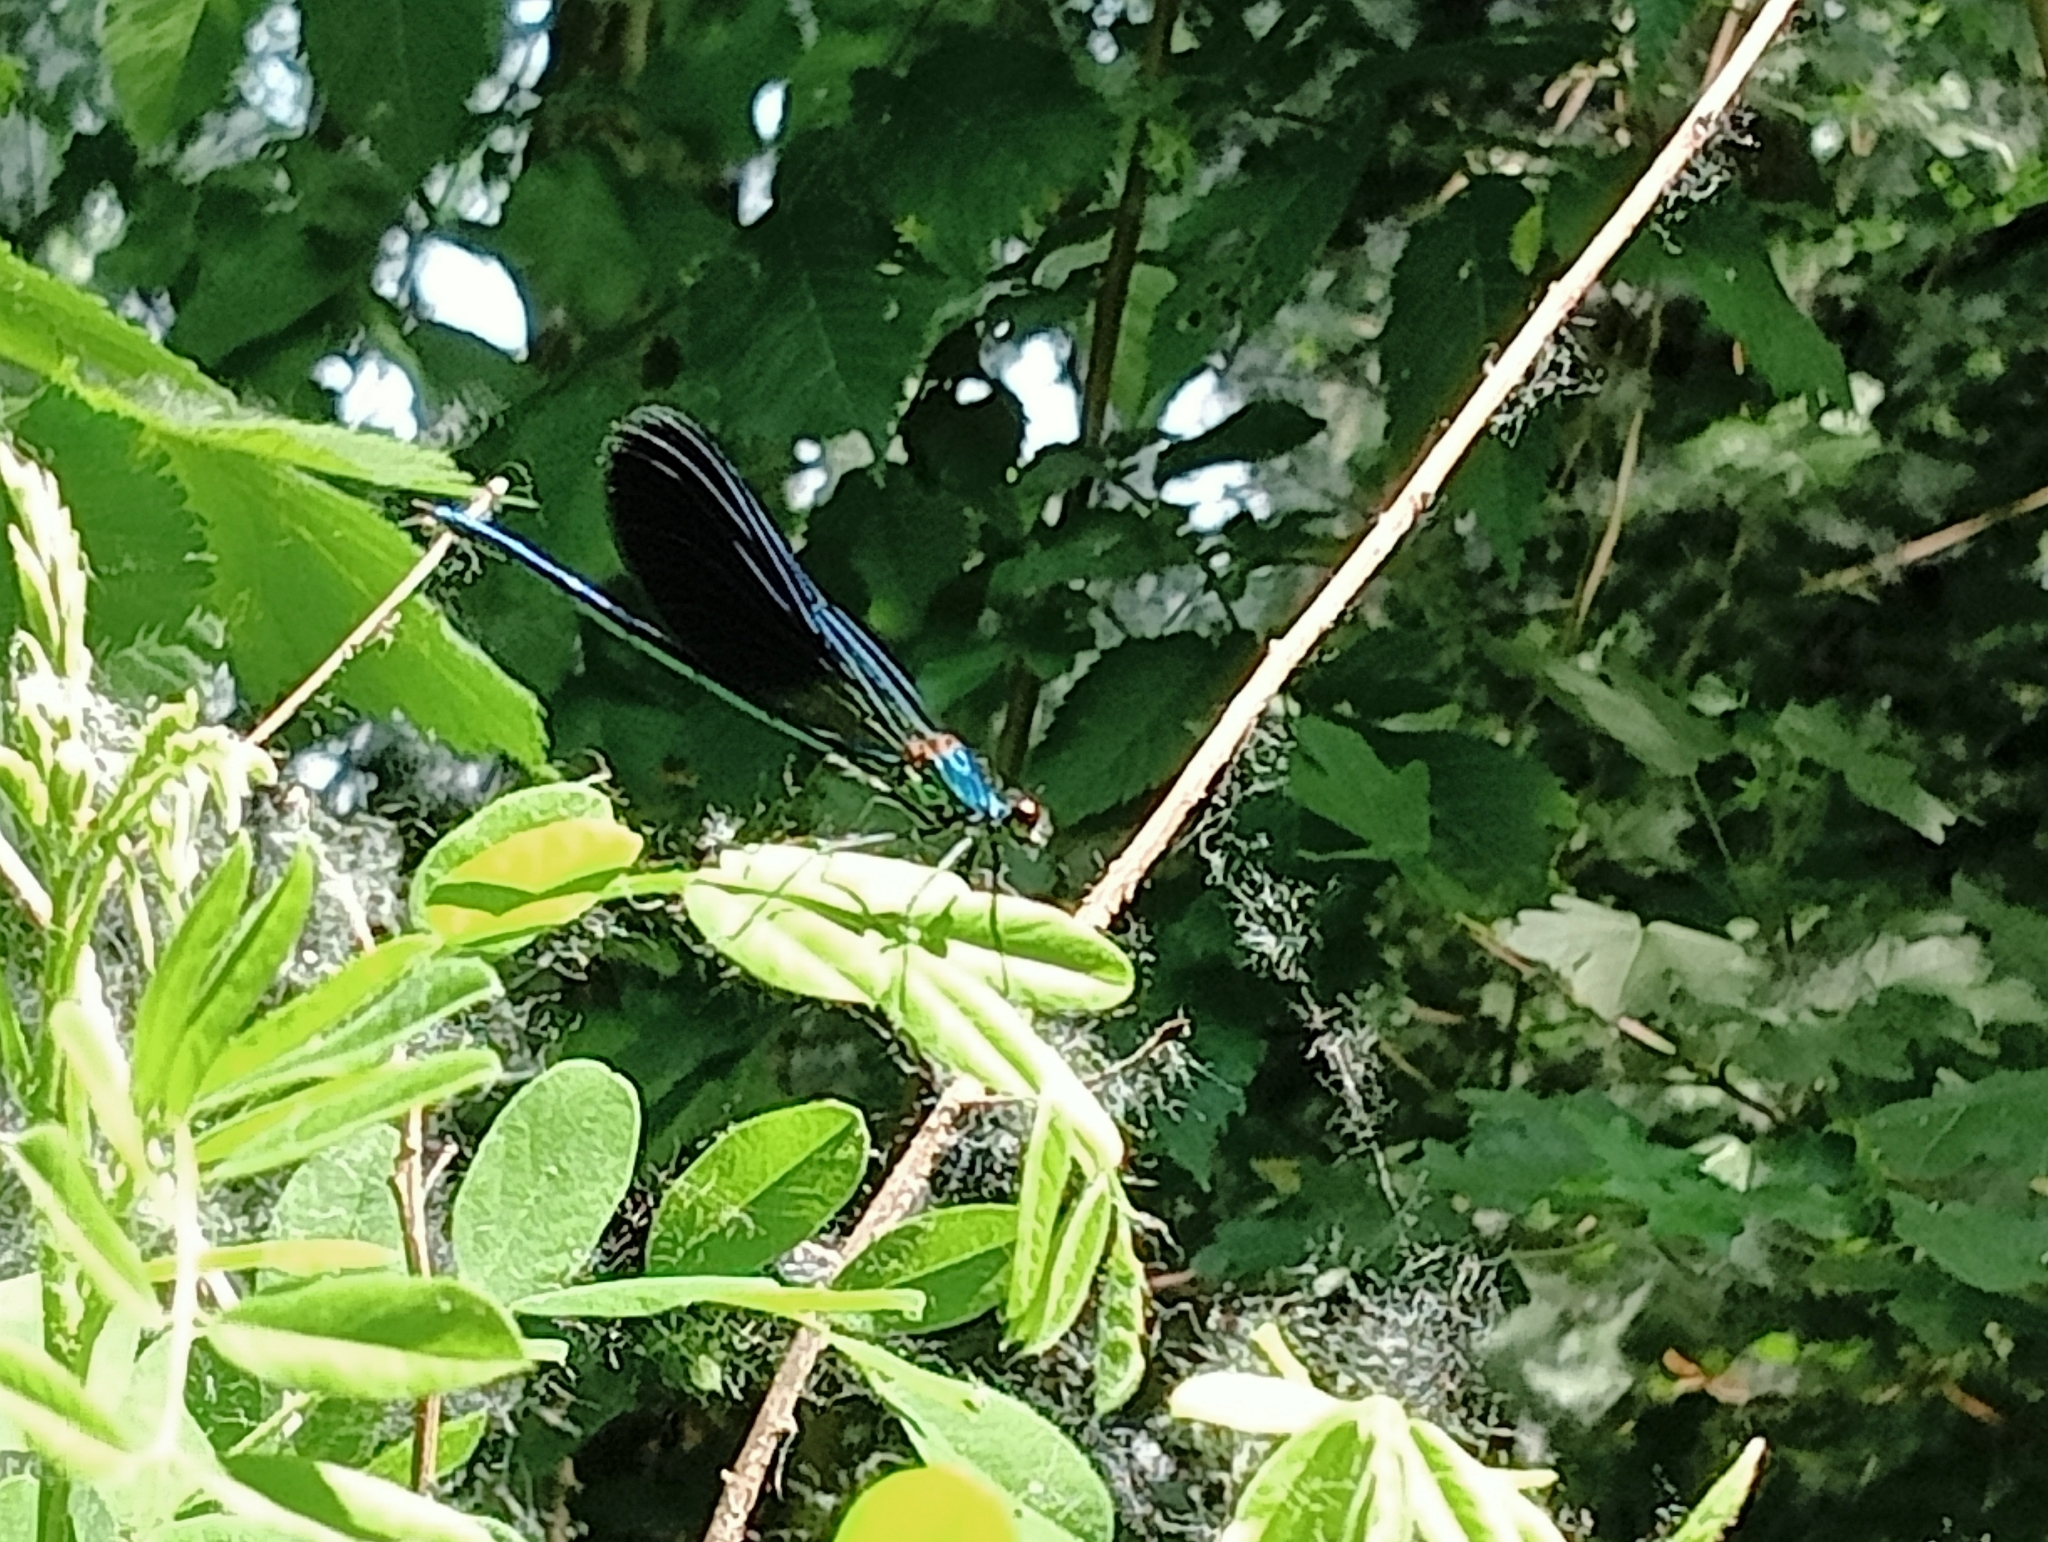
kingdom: Animalia
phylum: Arthropoda
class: Insecta
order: Odonata
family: Calopterygidae
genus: Calopteryx
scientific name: Calopteryx splendens
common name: Banded demoiselle
